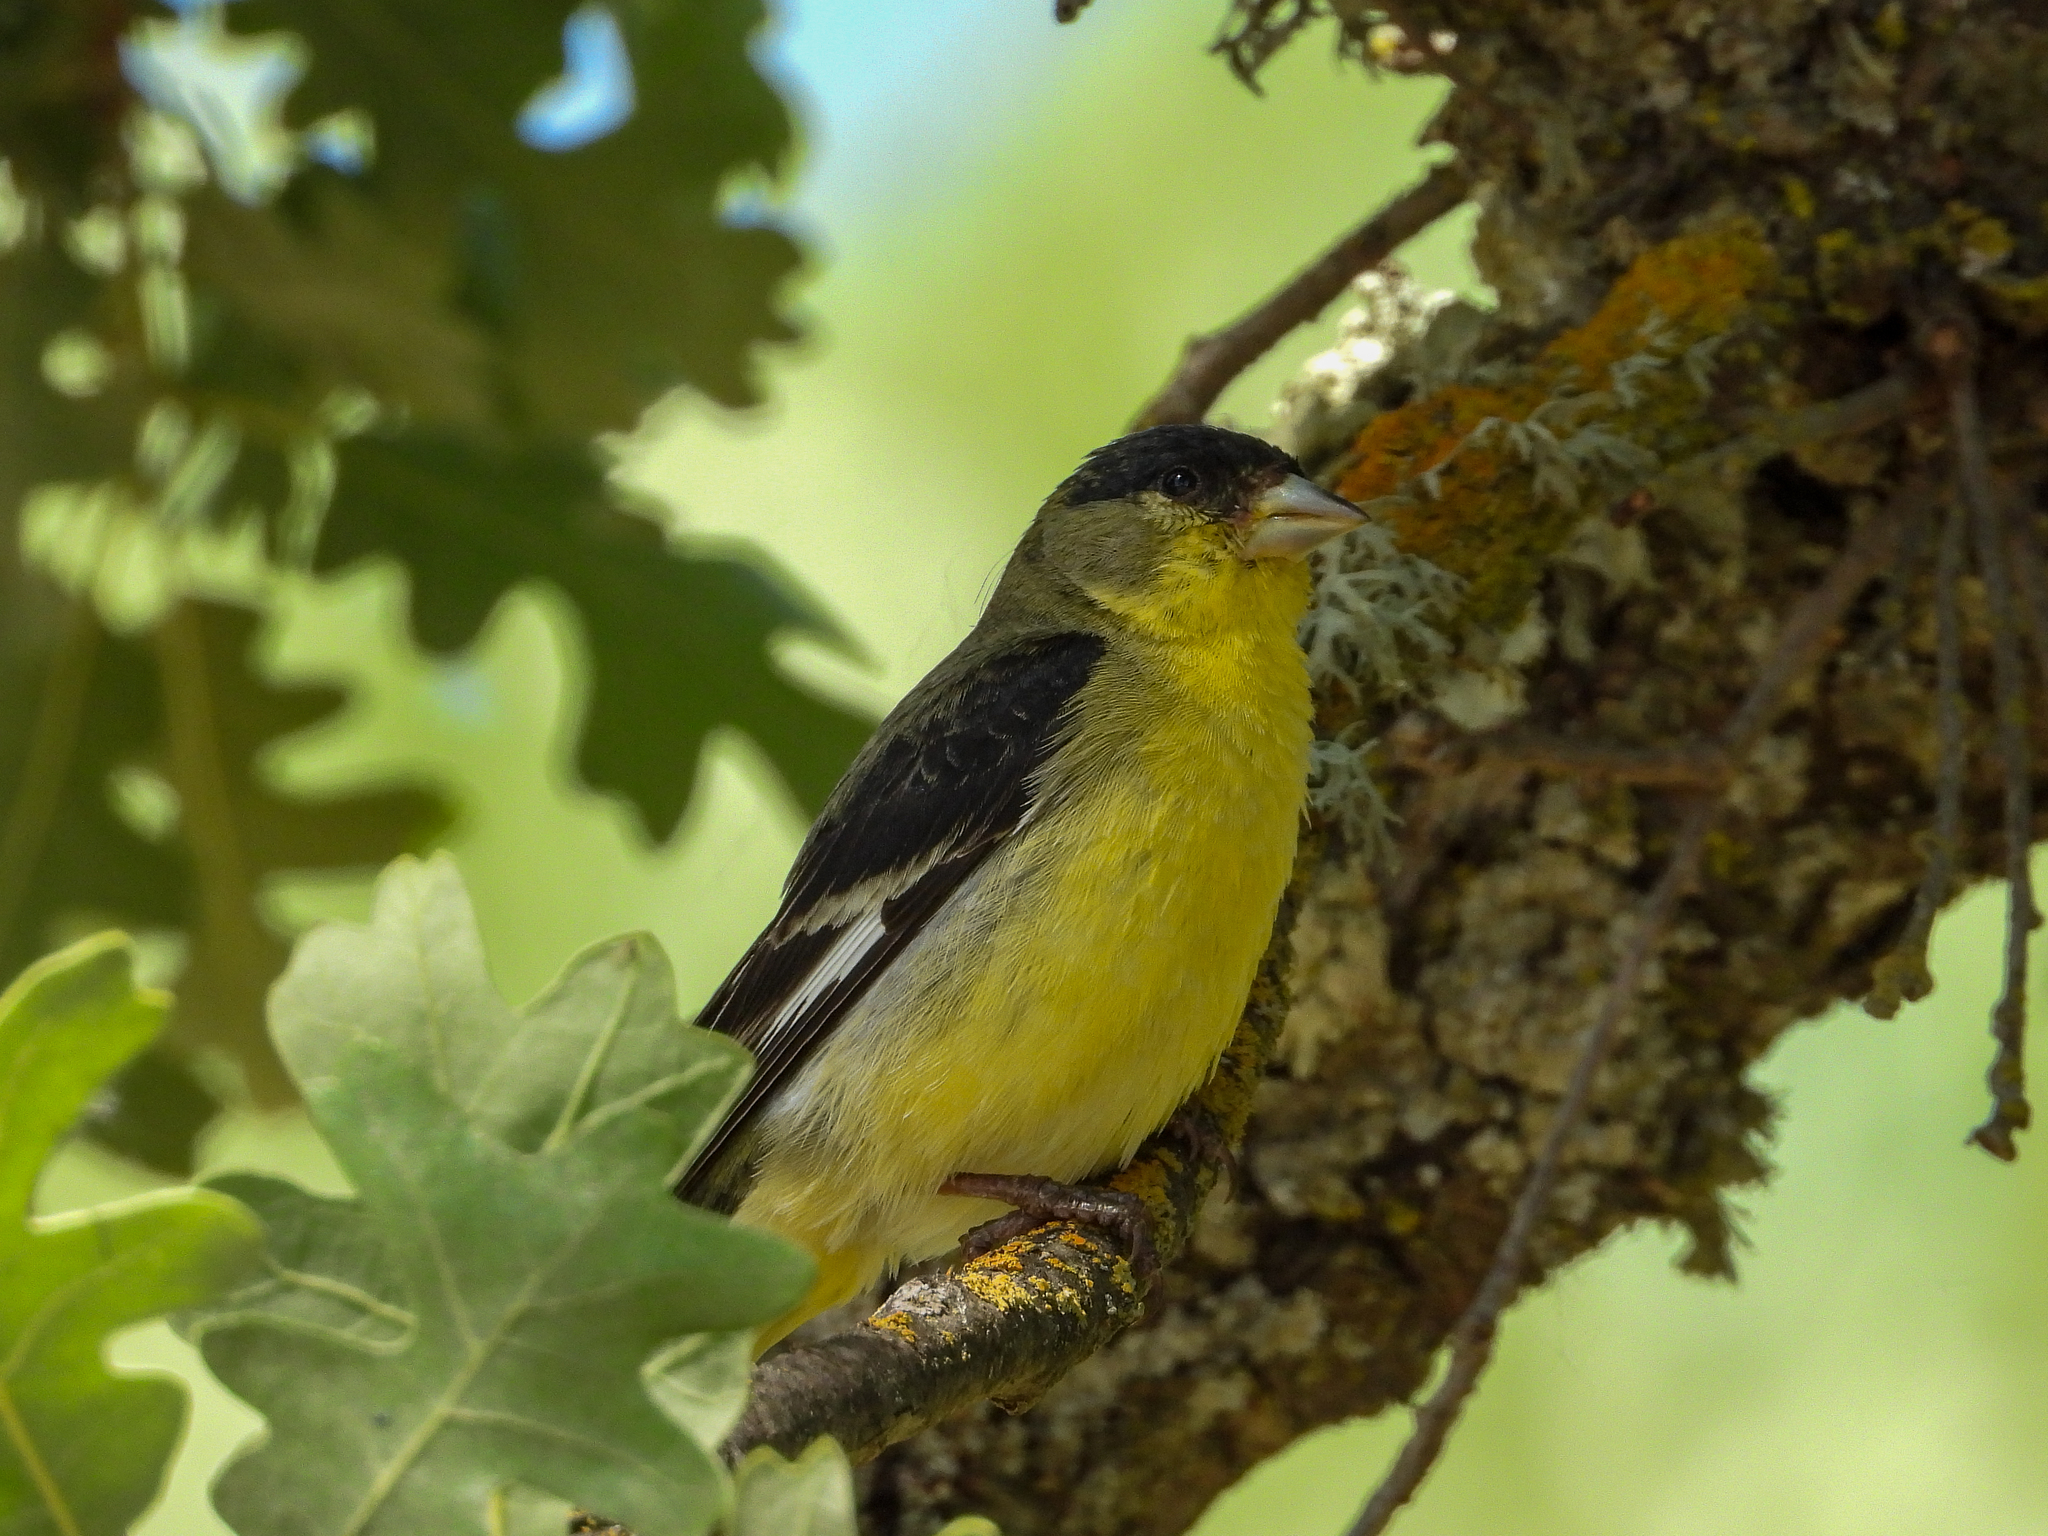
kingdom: Animalia
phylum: Chordata
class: Aves
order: Passeriformes
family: Fringillidae
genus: Spinus
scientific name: Spinus psaltria
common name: Lesser goldfinch
